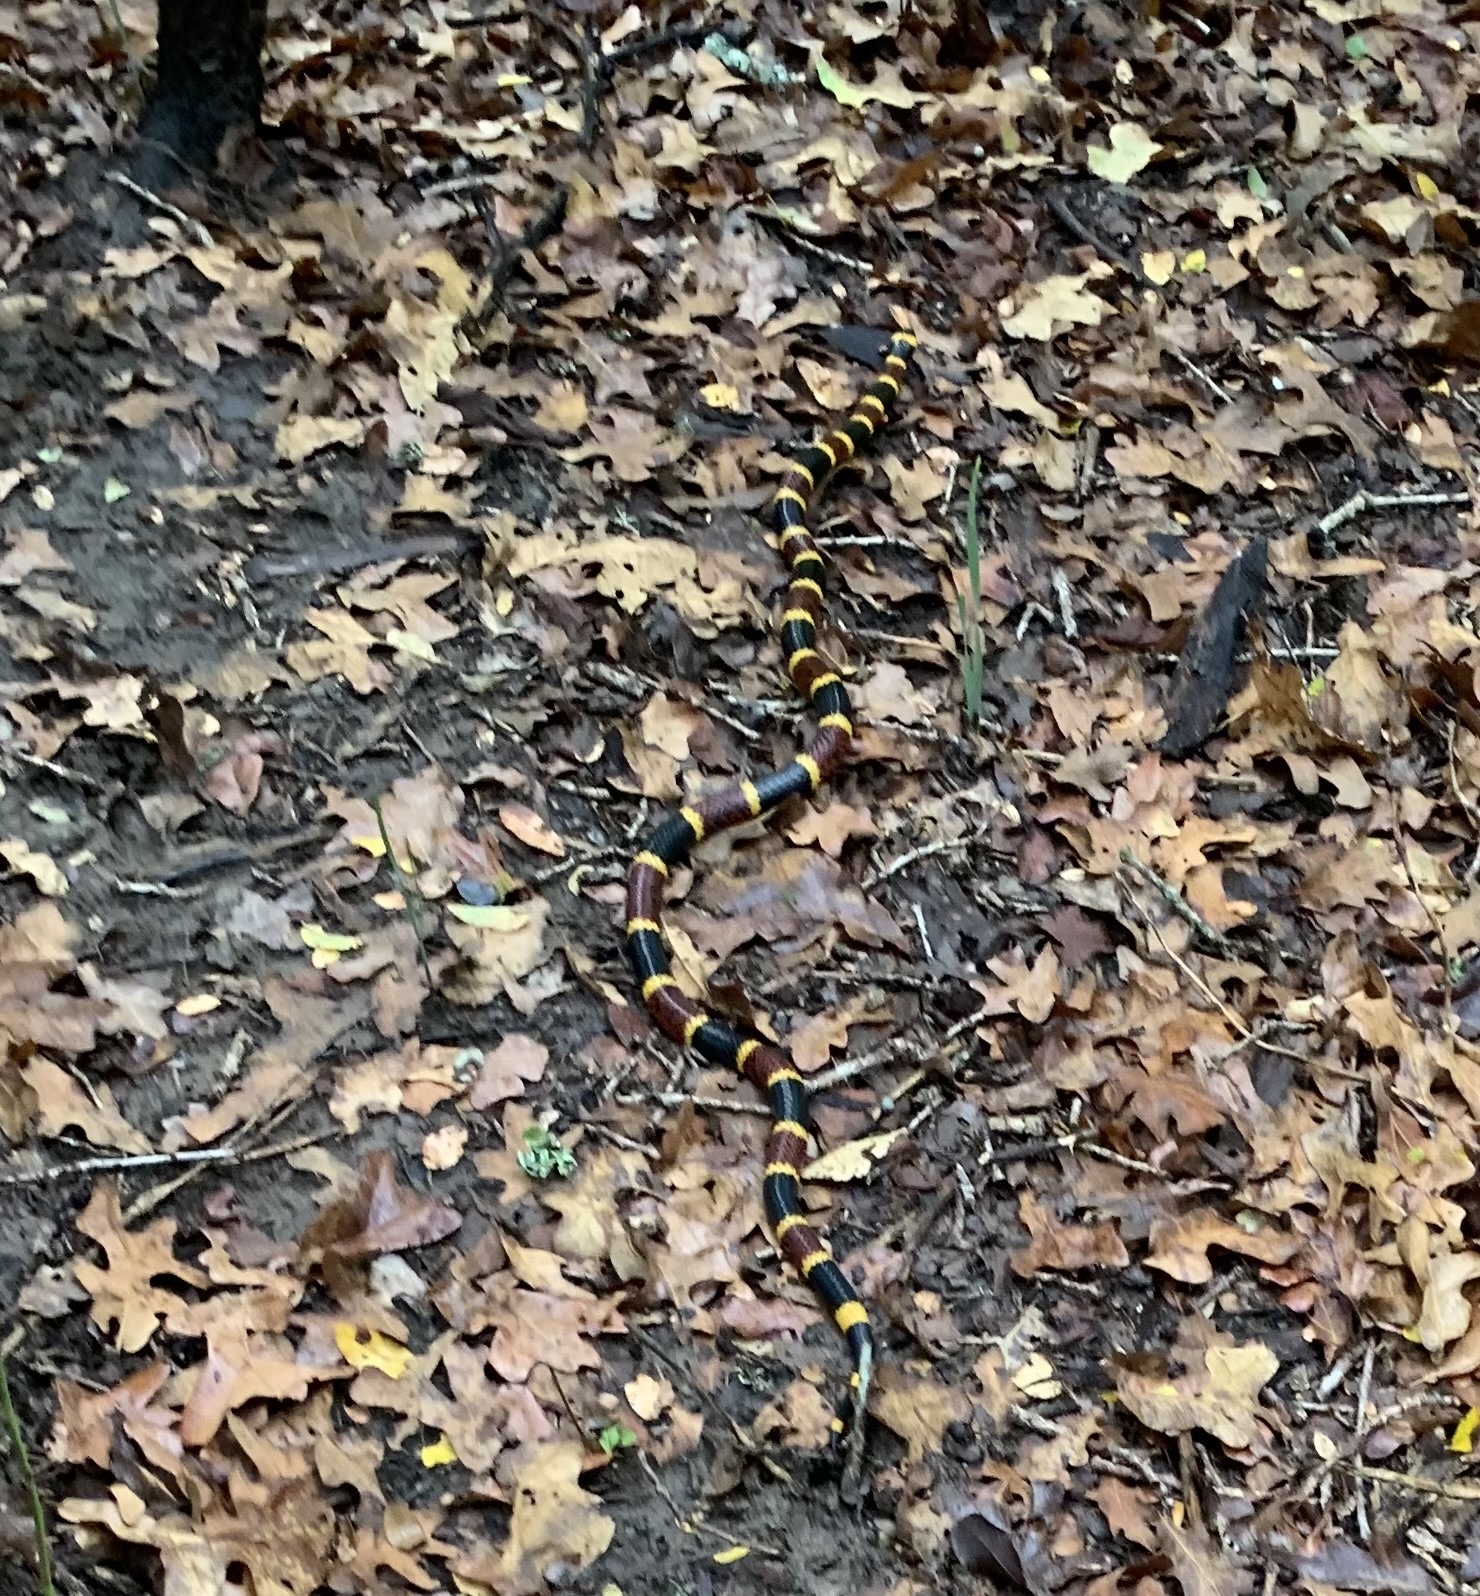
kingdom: Animalia
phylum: Chordata
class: Squamata
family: Elapidae
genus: Micrurus
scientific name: Micrurus tener
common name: Texas coral snake
